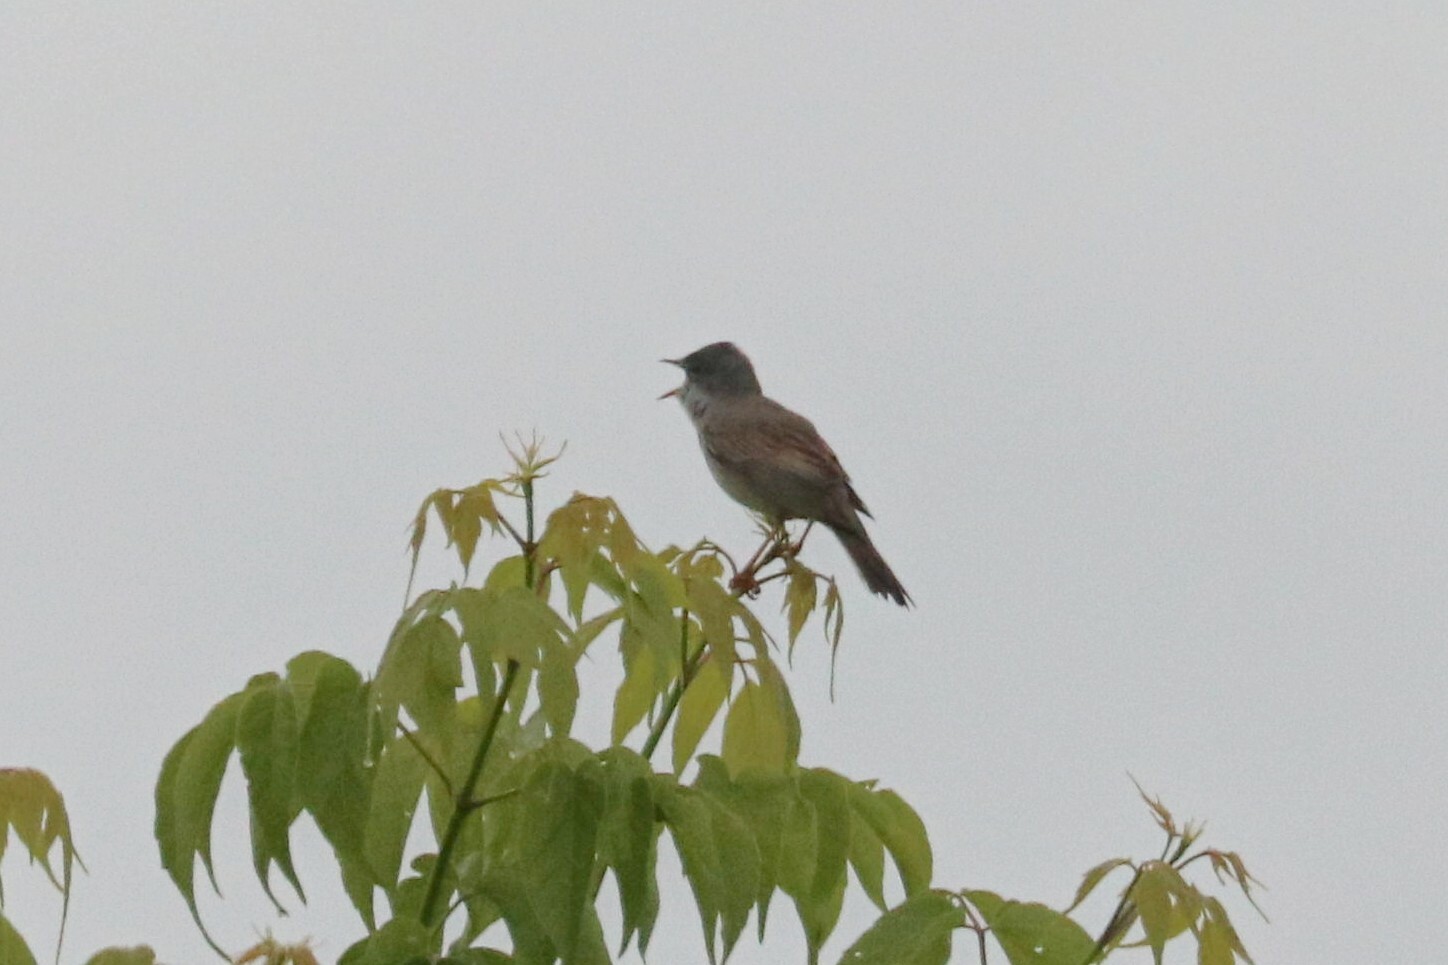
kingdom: Animalia
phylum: Chordata
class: Aves
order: Passeriformes
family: Sylviidae
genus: Sylvia
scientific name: Sylvia communis
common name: Common whitethroat
